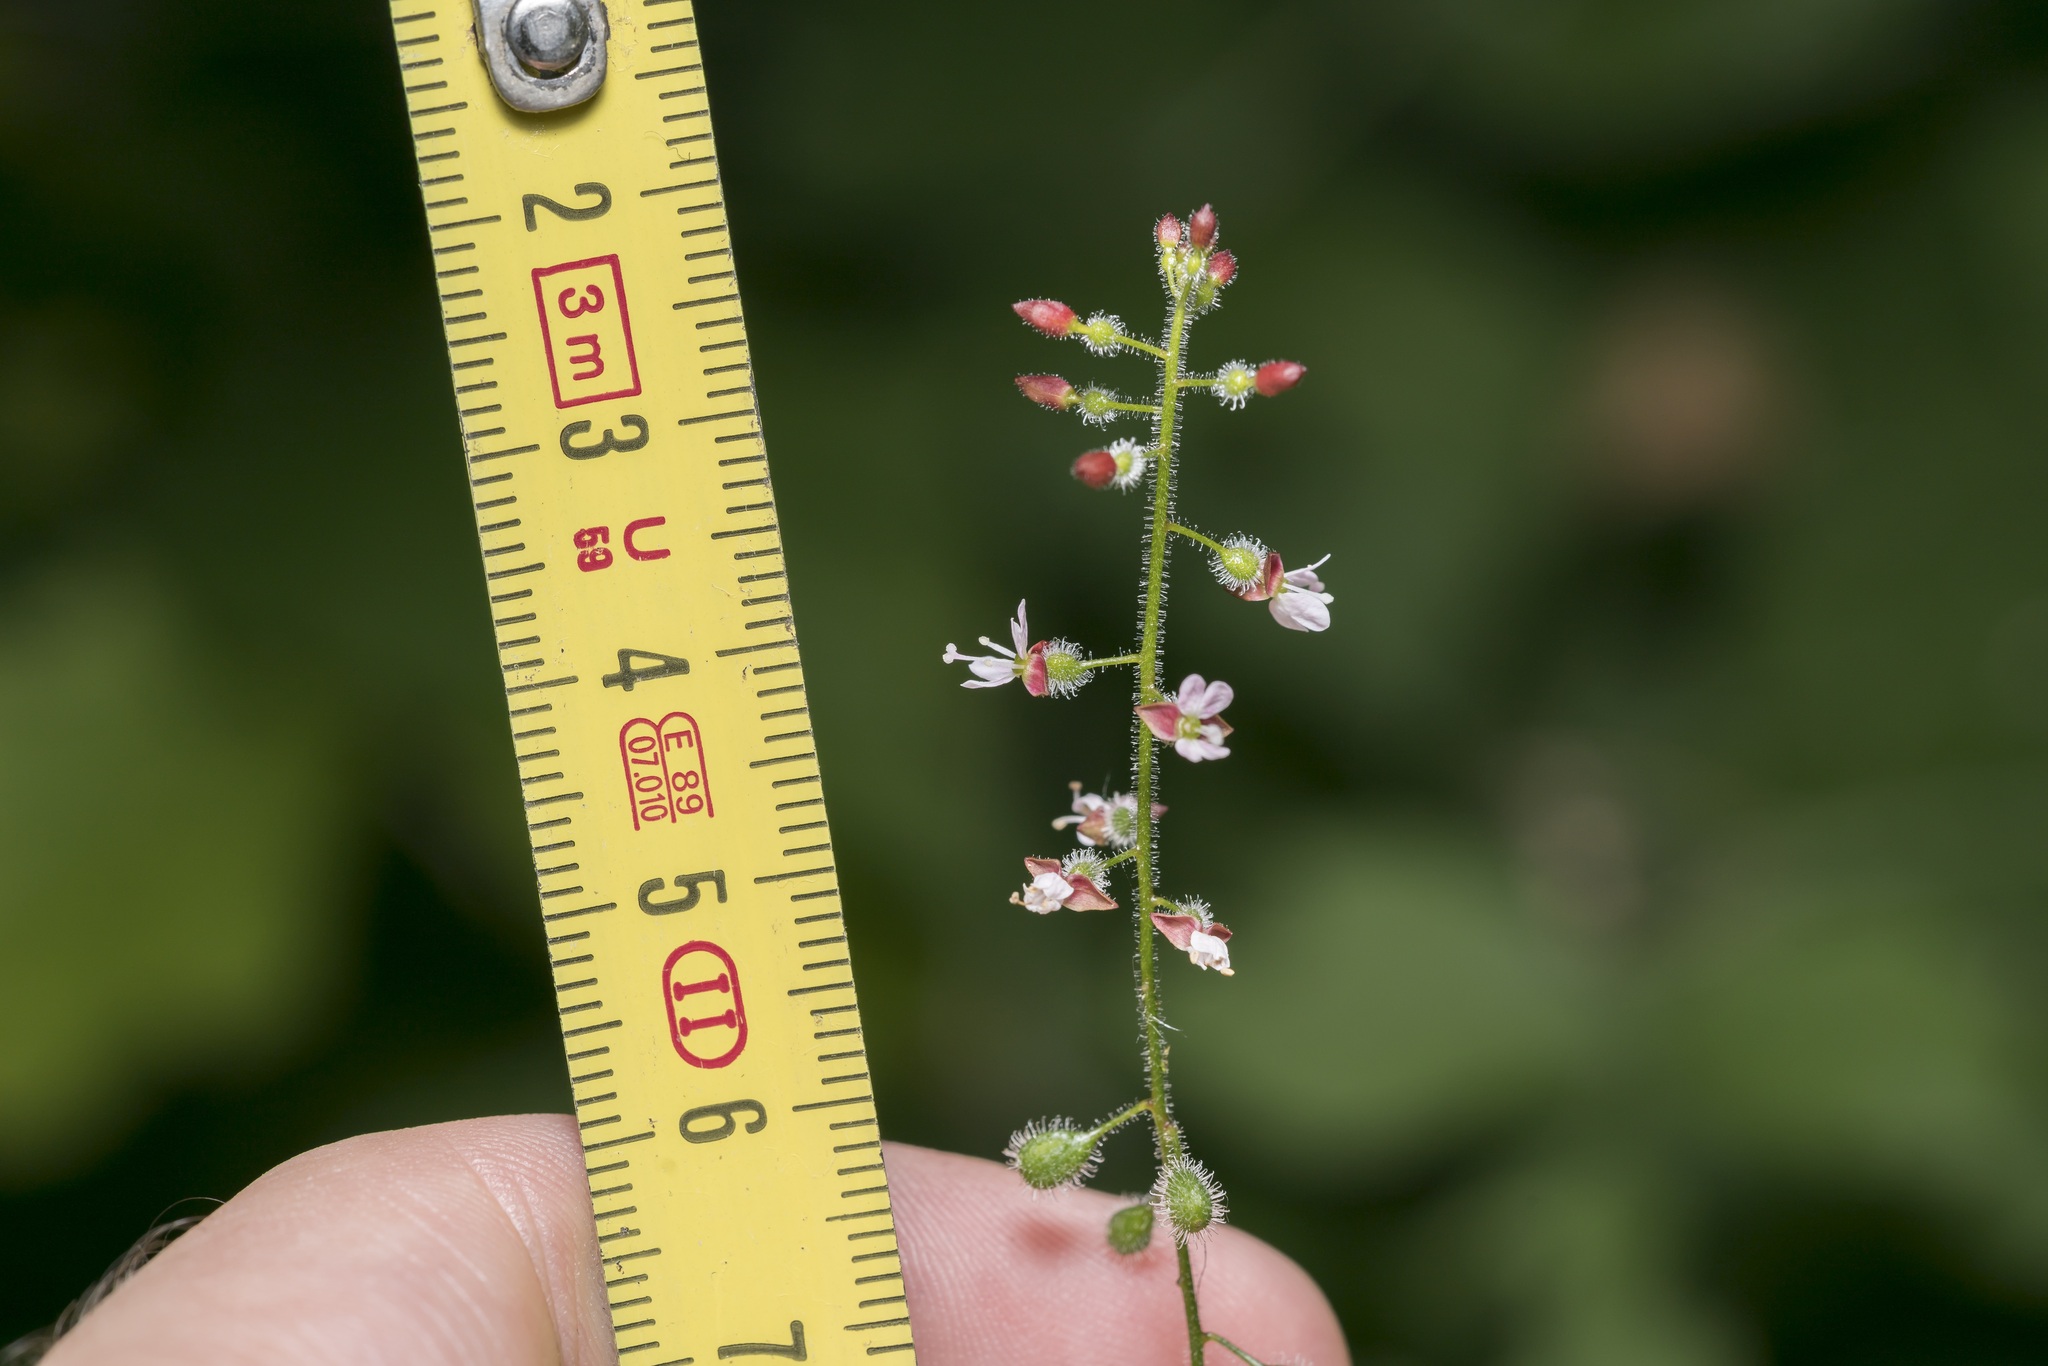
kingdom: Plantae
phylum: Tracheophyta
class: Magnoliopsida
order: Myrtales
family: Onagraceae
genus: Circaea
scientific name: Circaea lutetiana
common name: Enchanter's-nightshade
